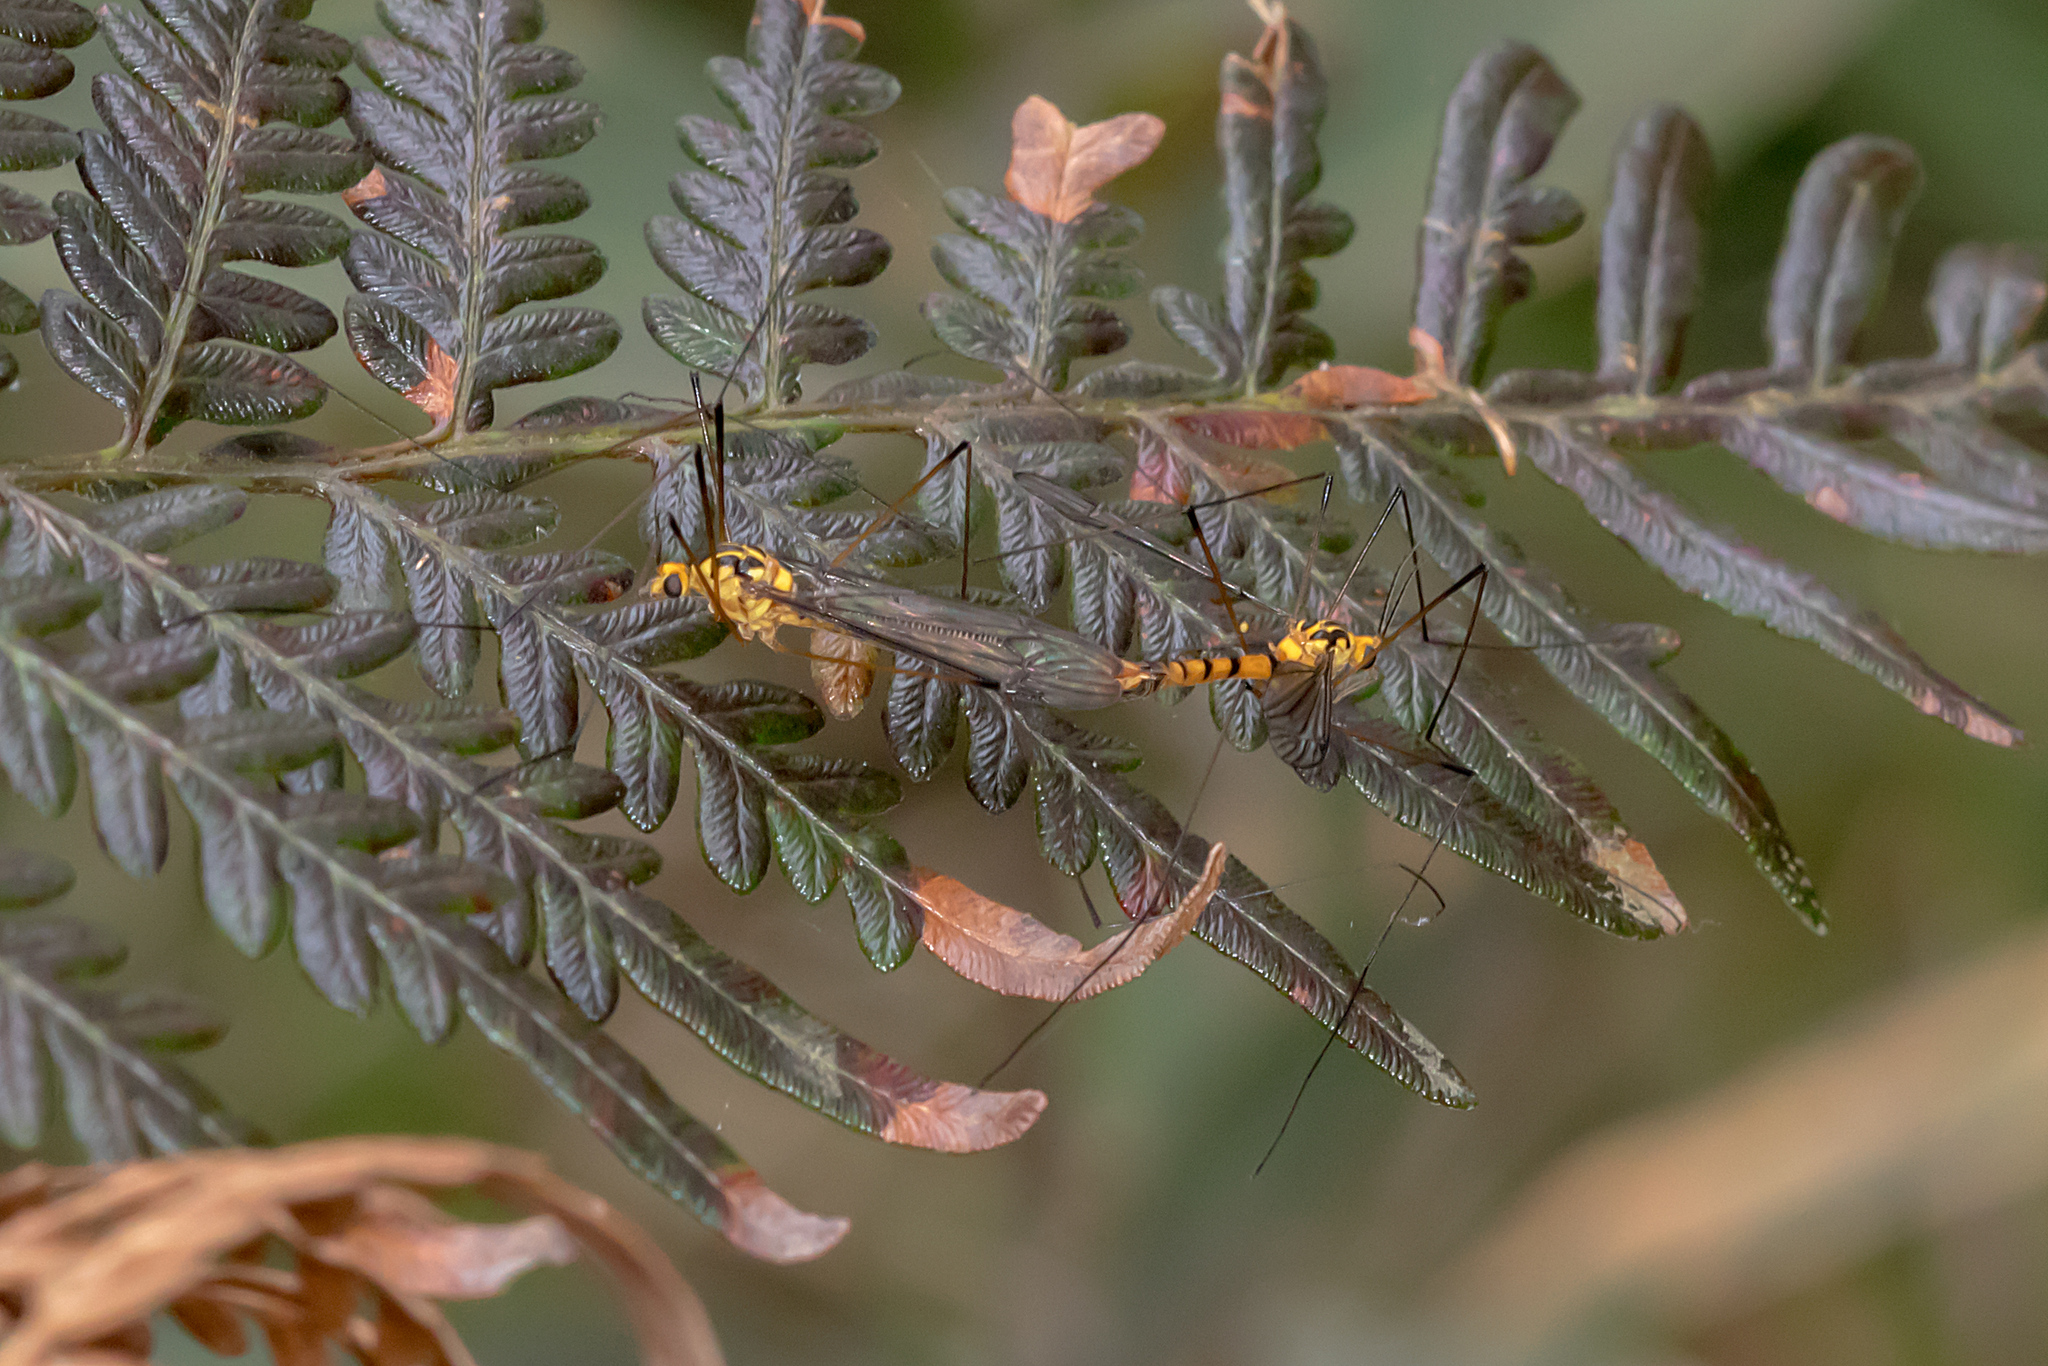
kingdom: Animalia
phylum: Arthropoda
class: Insecta
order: Diptera
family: Tipulidae
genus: Nephrotoma
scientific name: Nephrotoma australasiae
